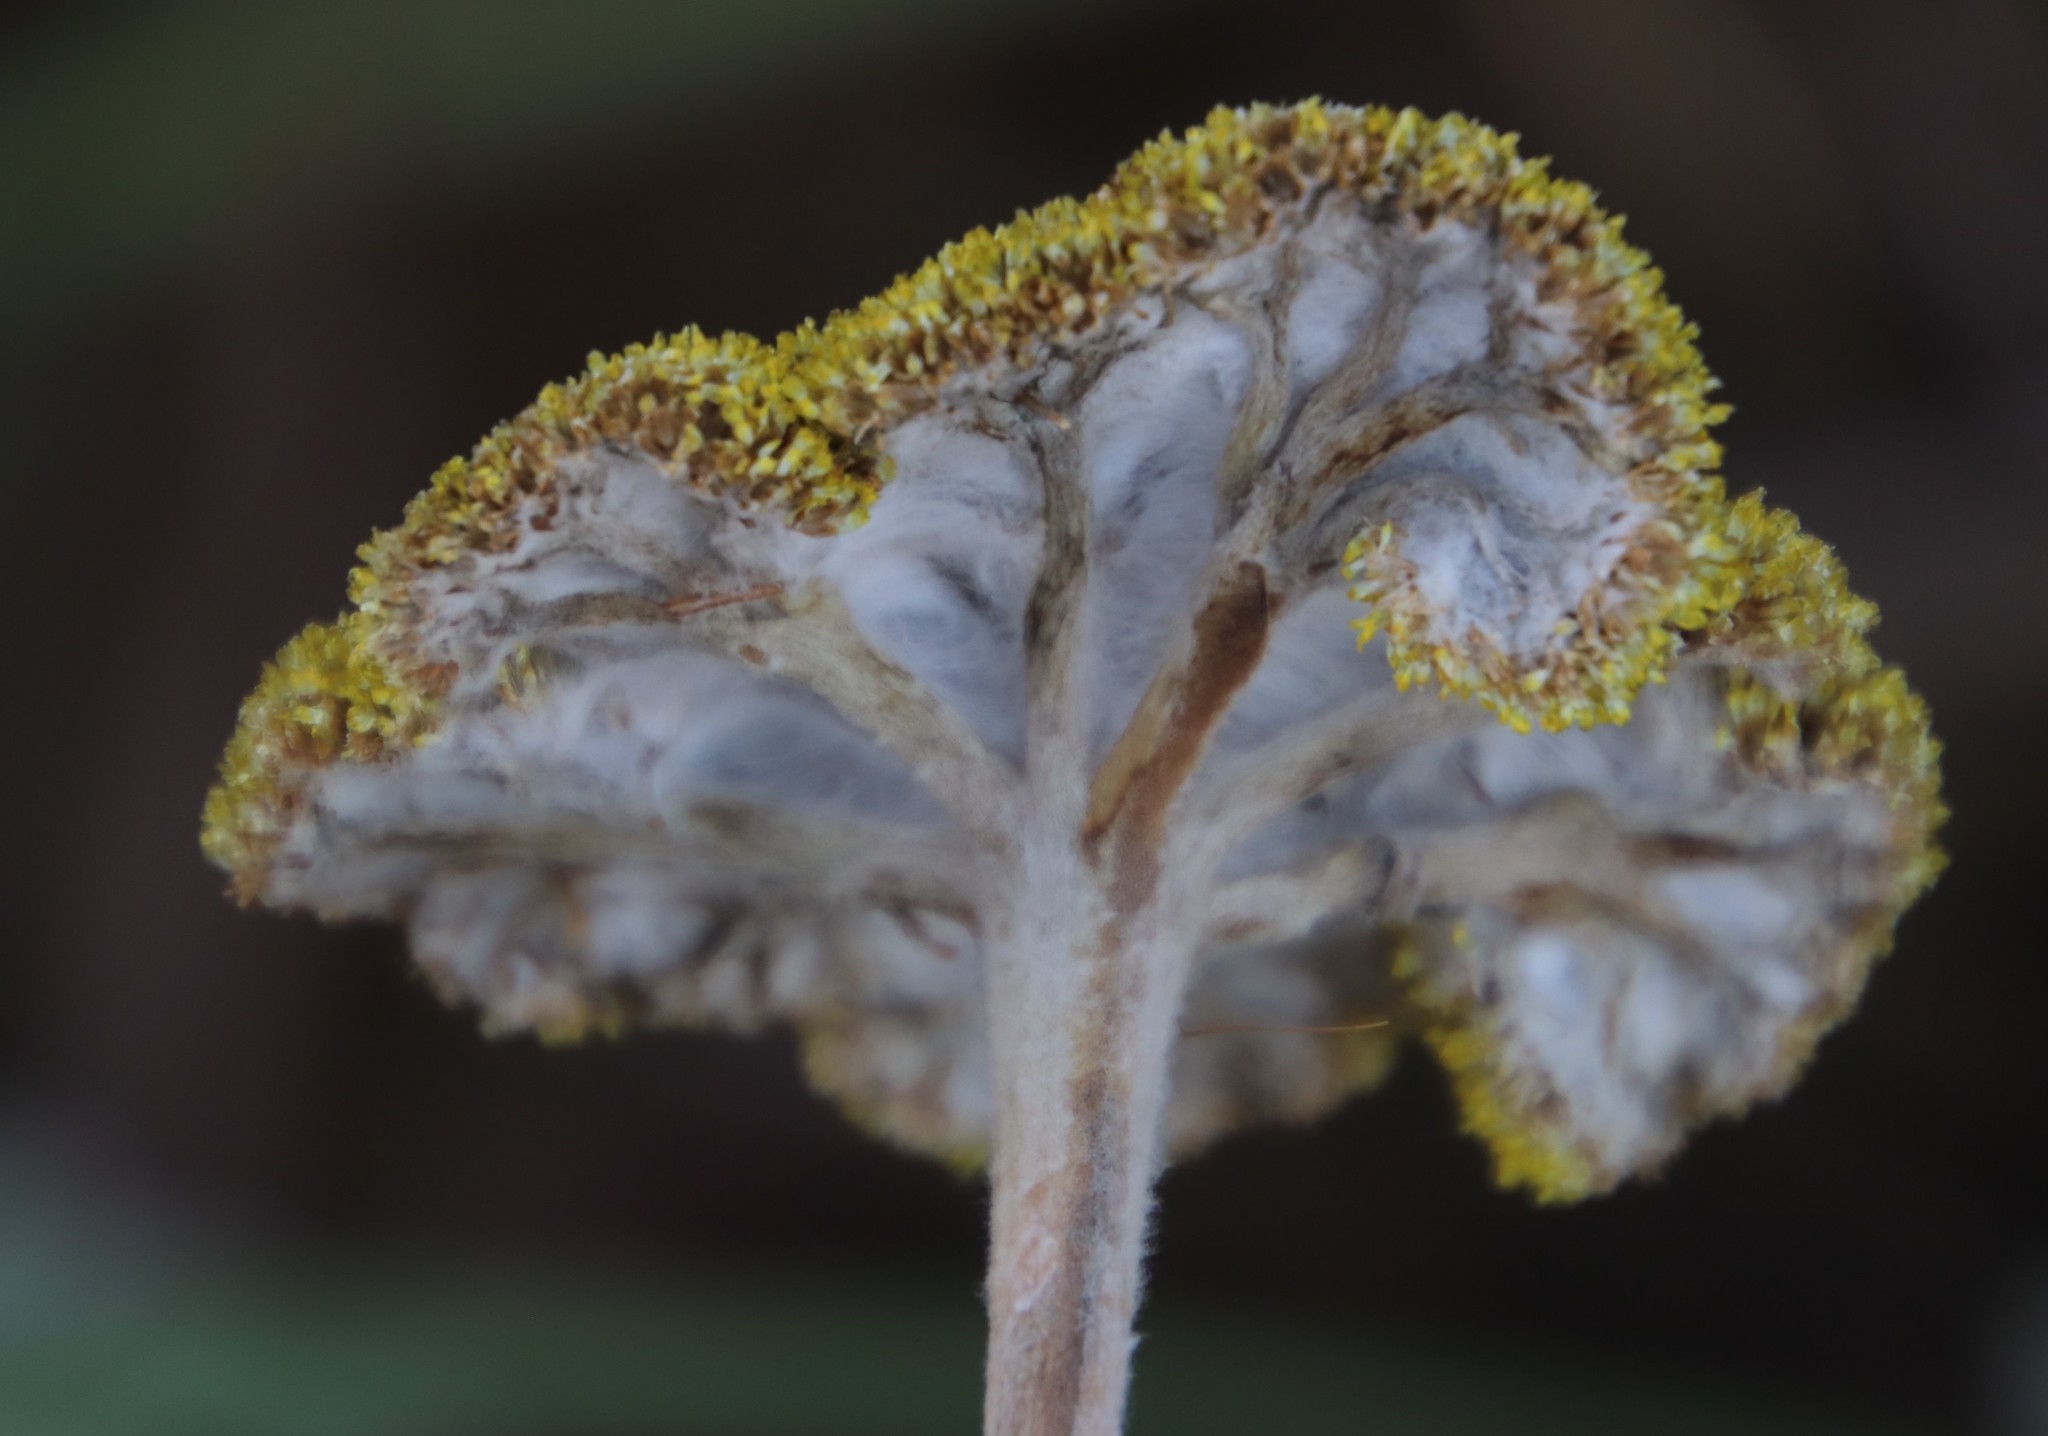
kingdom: Plantae
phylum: Tracheophyta
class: Magnoliopsida
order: Asterales
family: Asteraceae
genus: Helichrysum
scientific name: Helichrysum umbraculigerum
